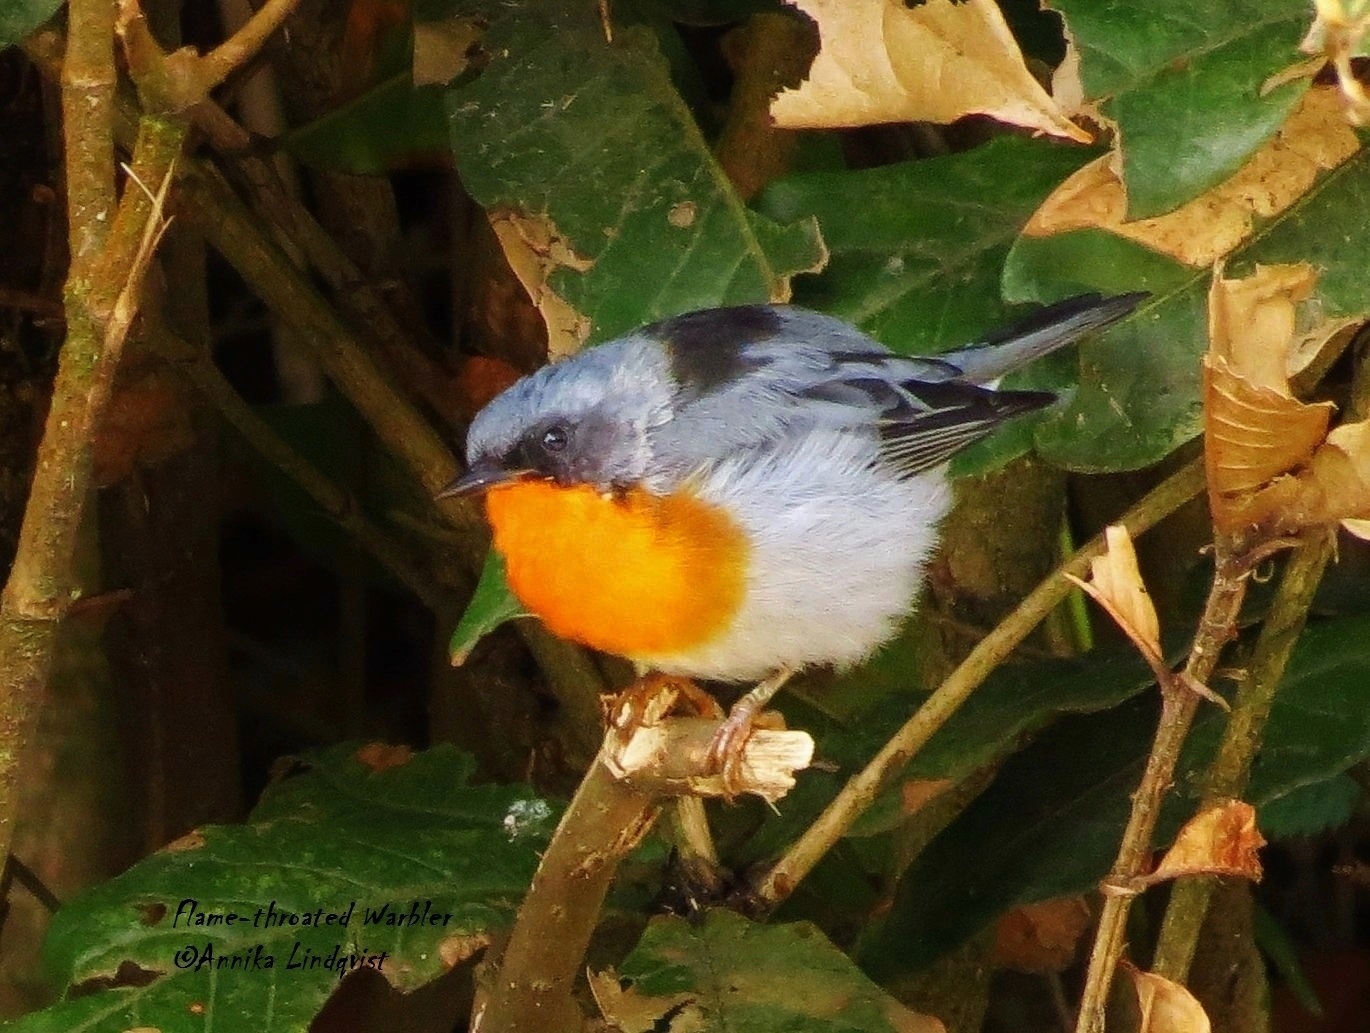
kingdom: Animalia
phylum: Chordata
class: Aves
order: Passeriformes
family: Parulidae
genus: Oreothlypis
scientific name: Oreothlypis gutturalis
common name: Flame-throated warbler
